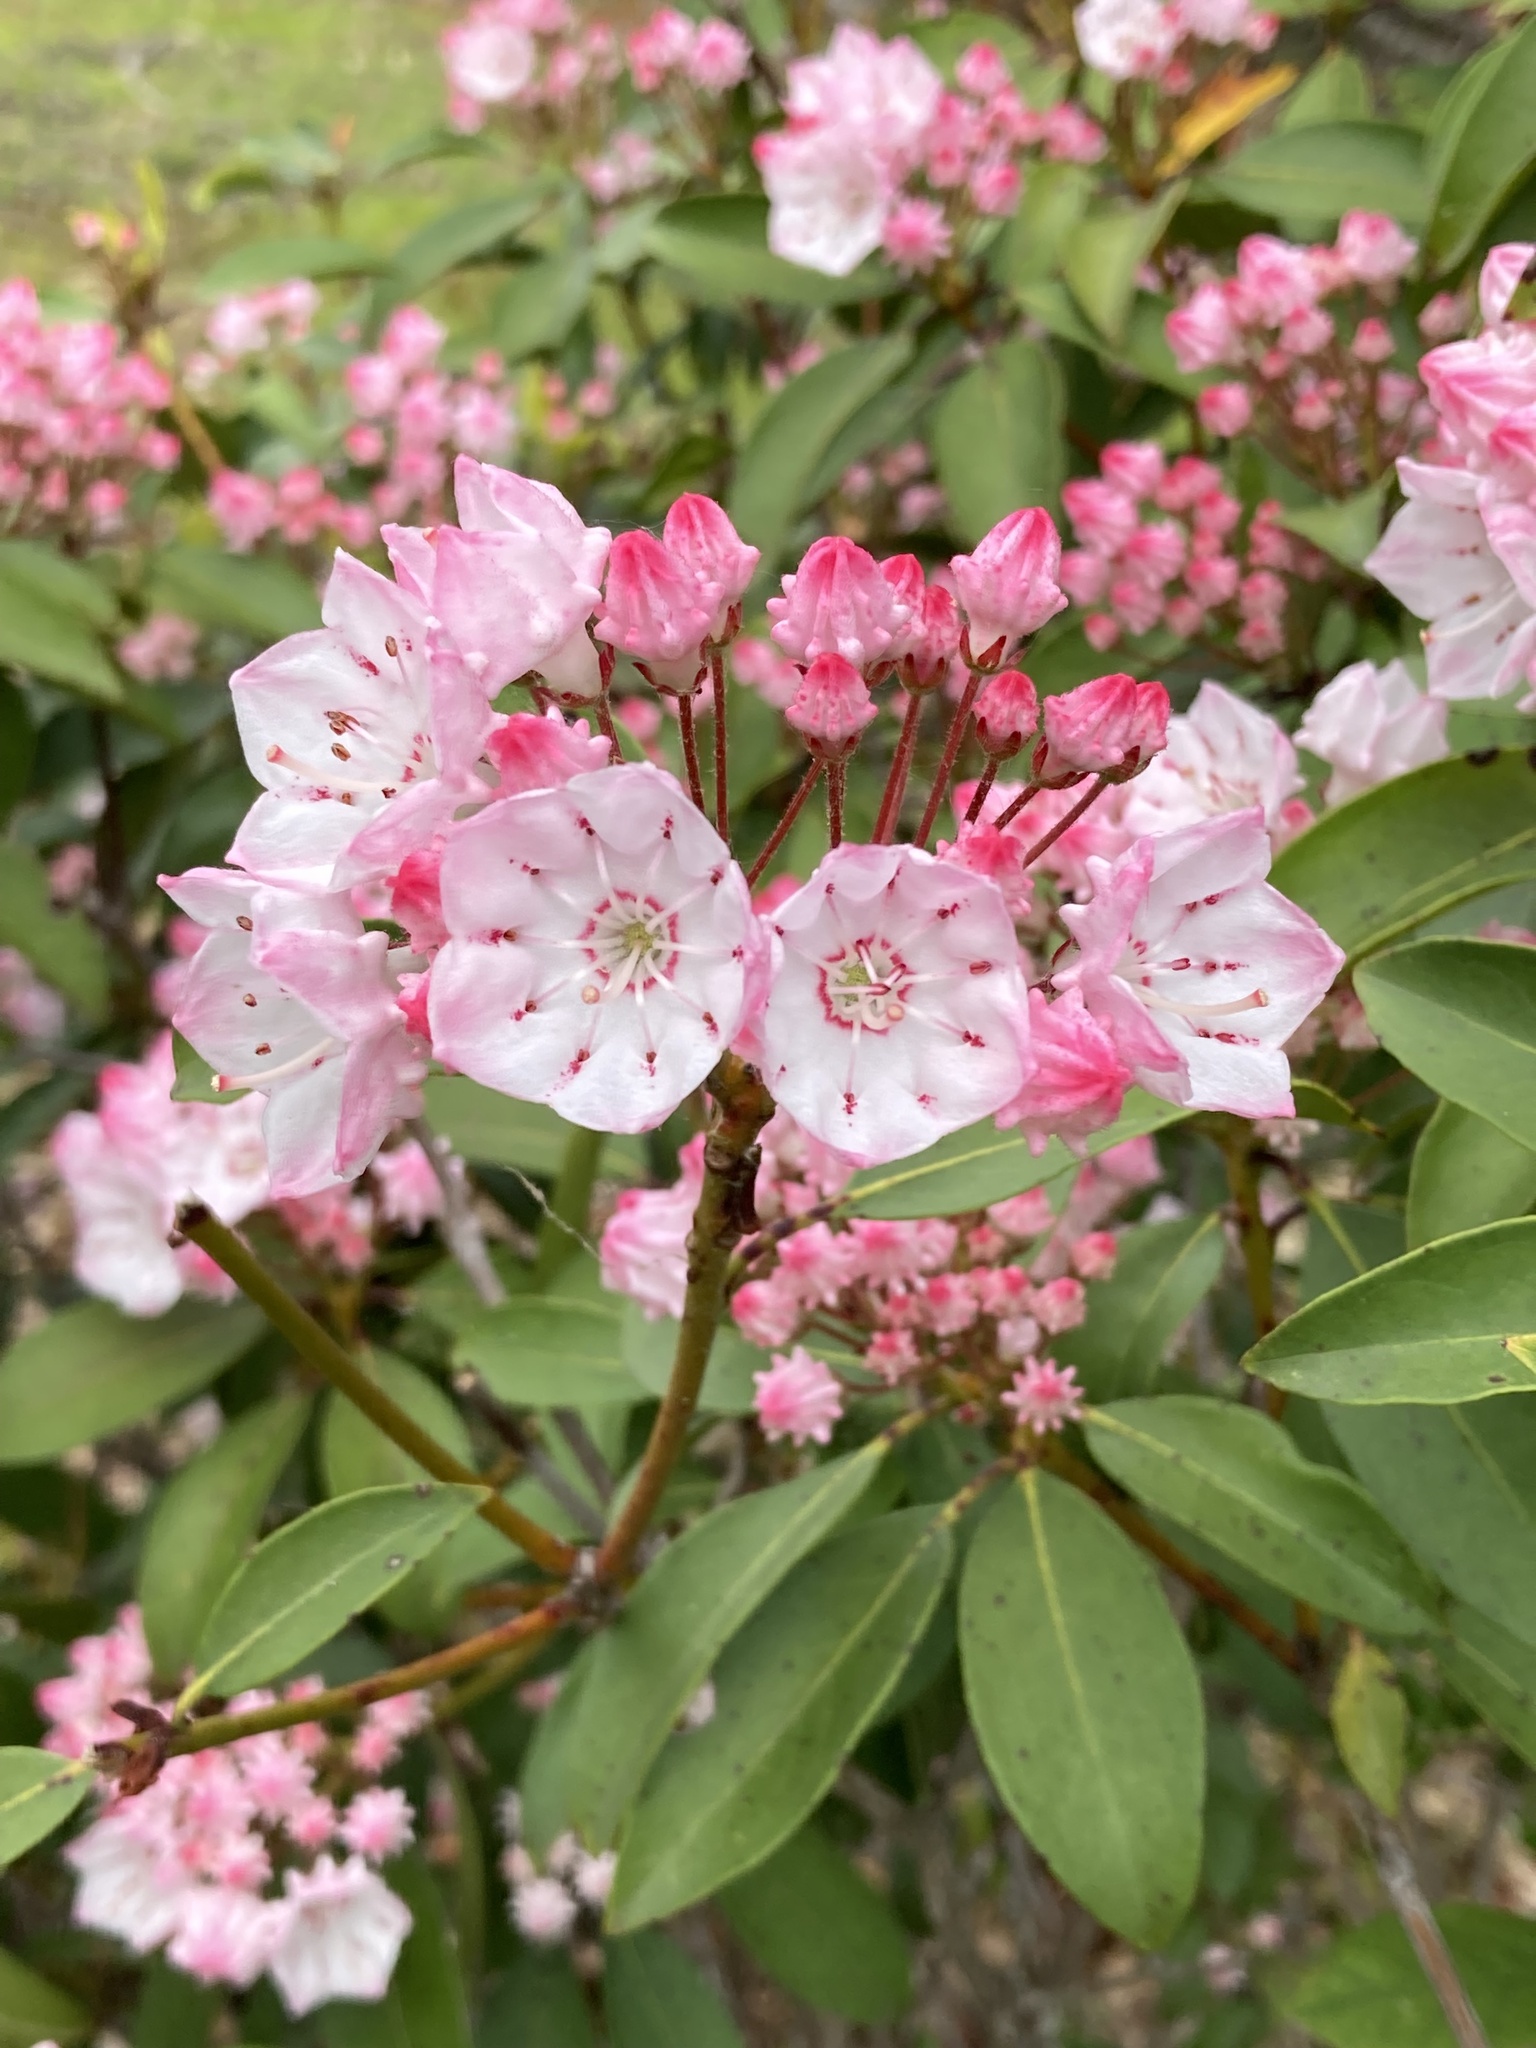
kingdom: Plantae
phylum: Tracheophyta
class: Magnoliopsida
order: Ericales
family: Ericaceae
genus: Kalmia
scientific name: Kalmia latifolia
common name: Mountain-laurel
